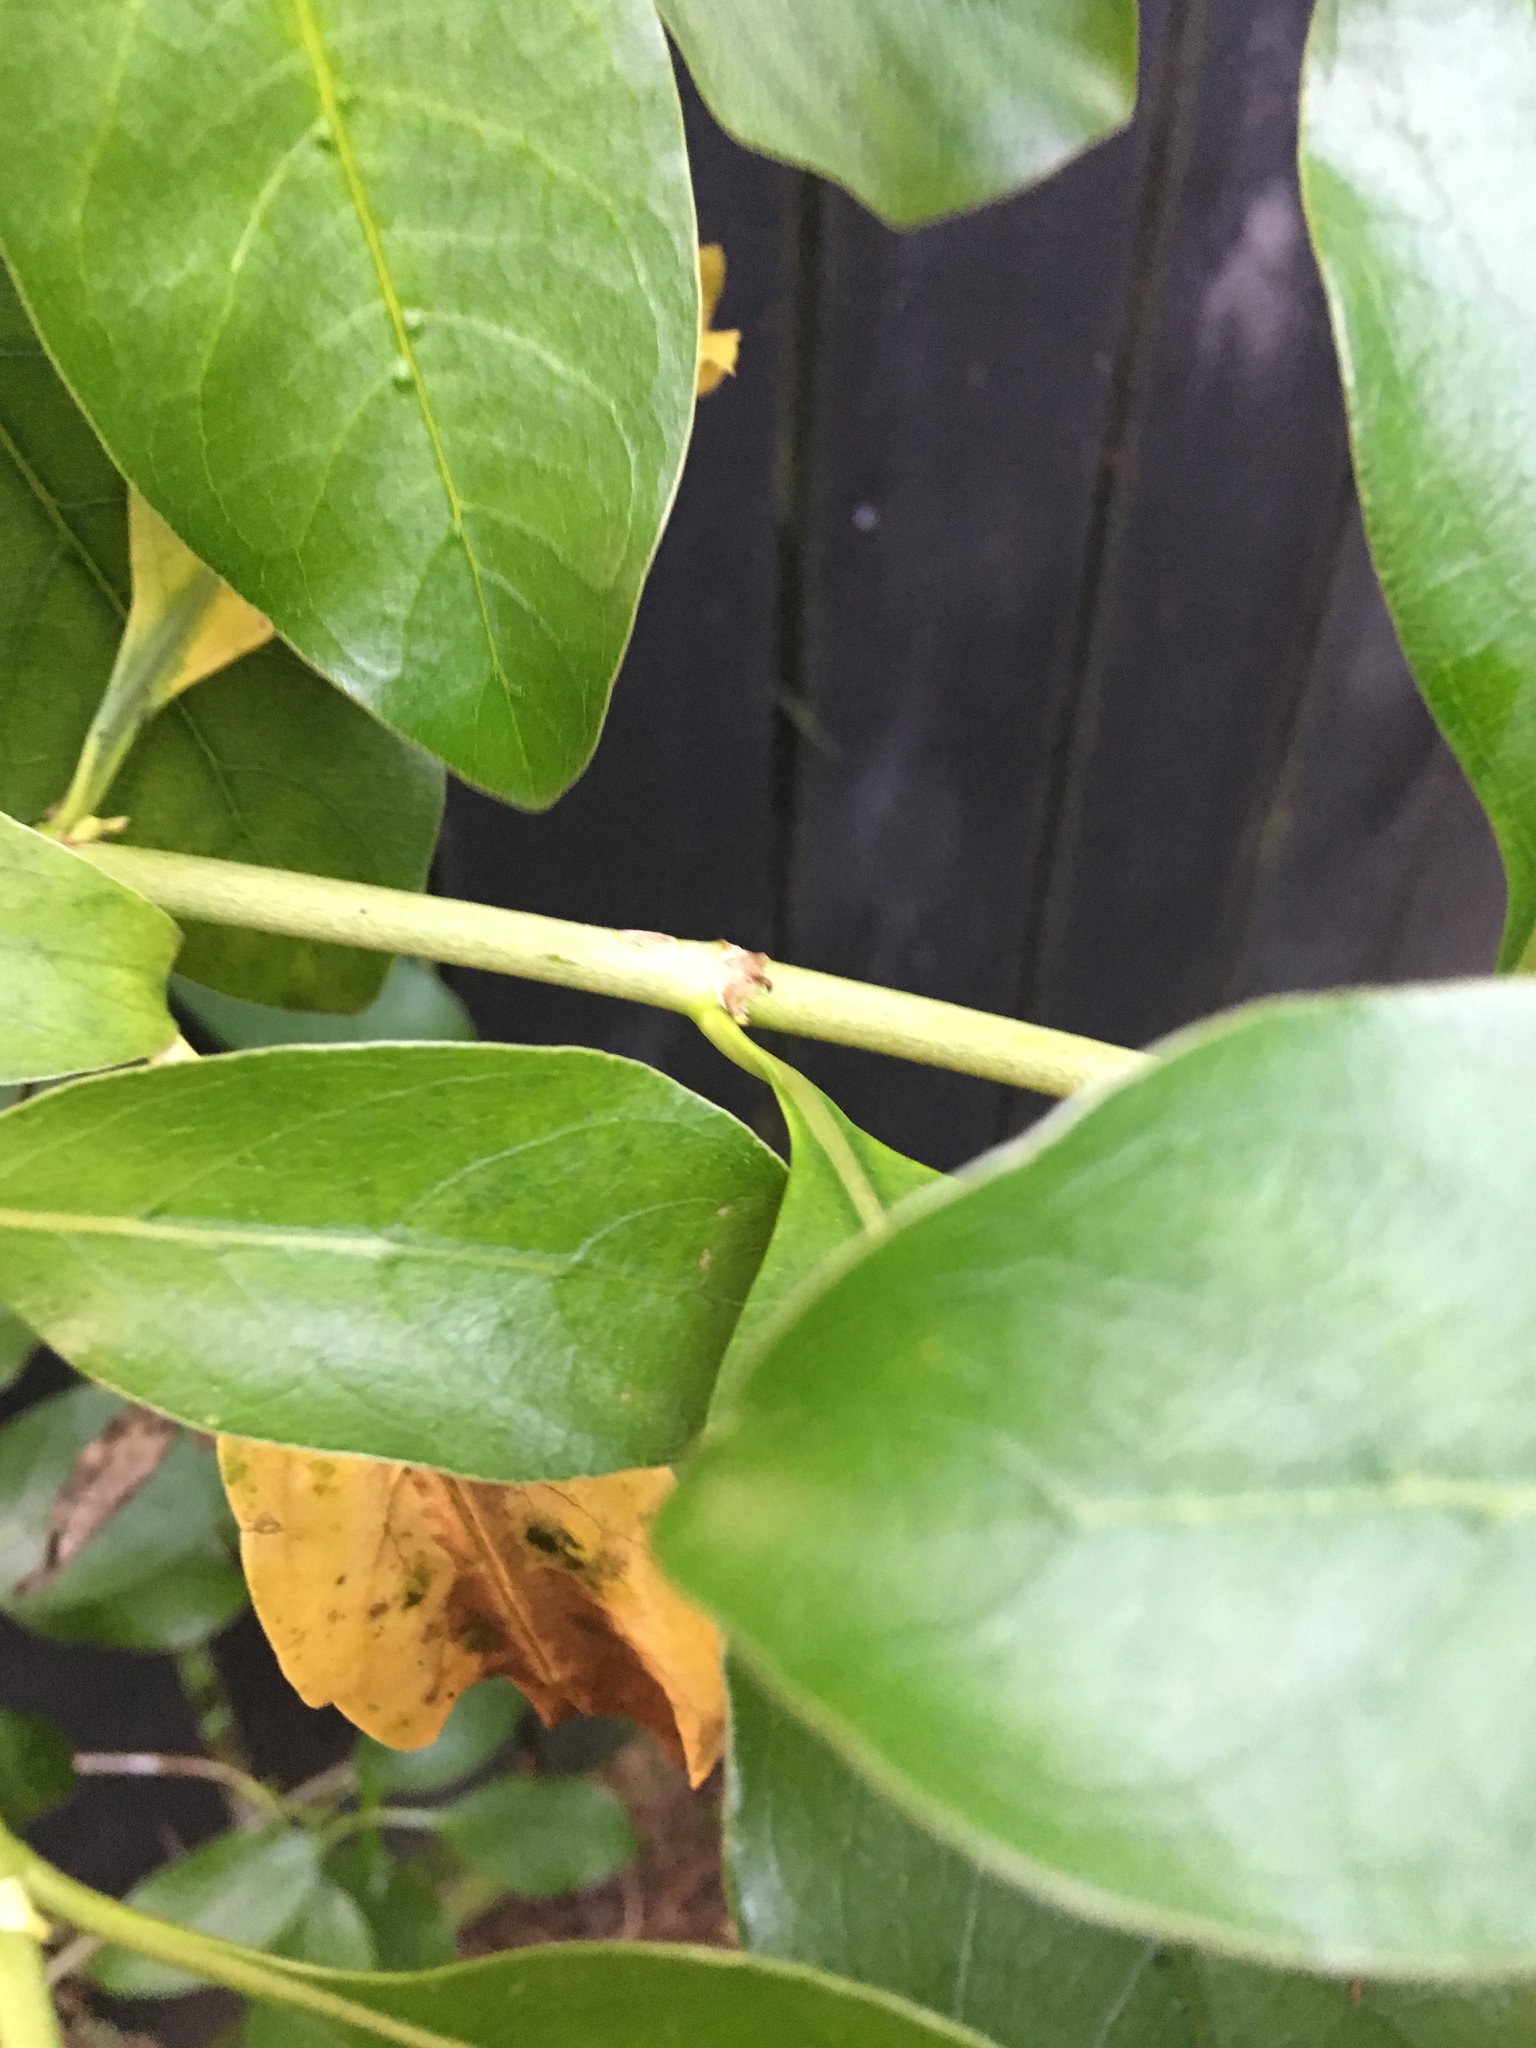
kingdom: Plantae
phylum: Tracheophyta
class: Magnoliopsida
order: Gentianales
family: Rubiaceae
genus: Coprosma
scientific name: Coprosma robusta
